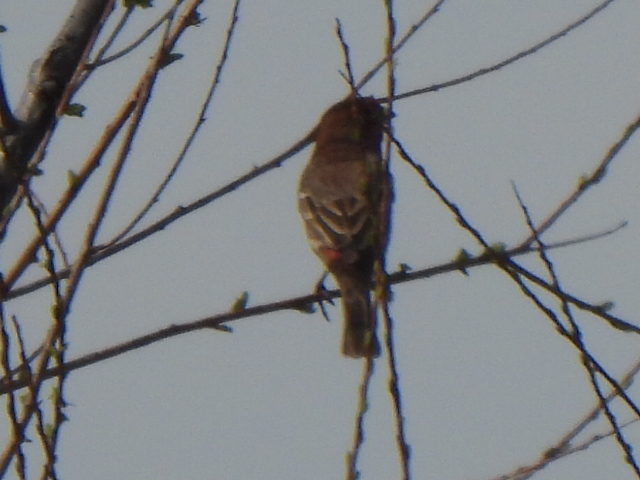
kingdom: Animalia
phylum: Chordata
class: Aves
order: Passeriformes
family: Fringillidae
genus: Haemorhous
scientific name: Haemorhous mexicanus
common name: House finch
